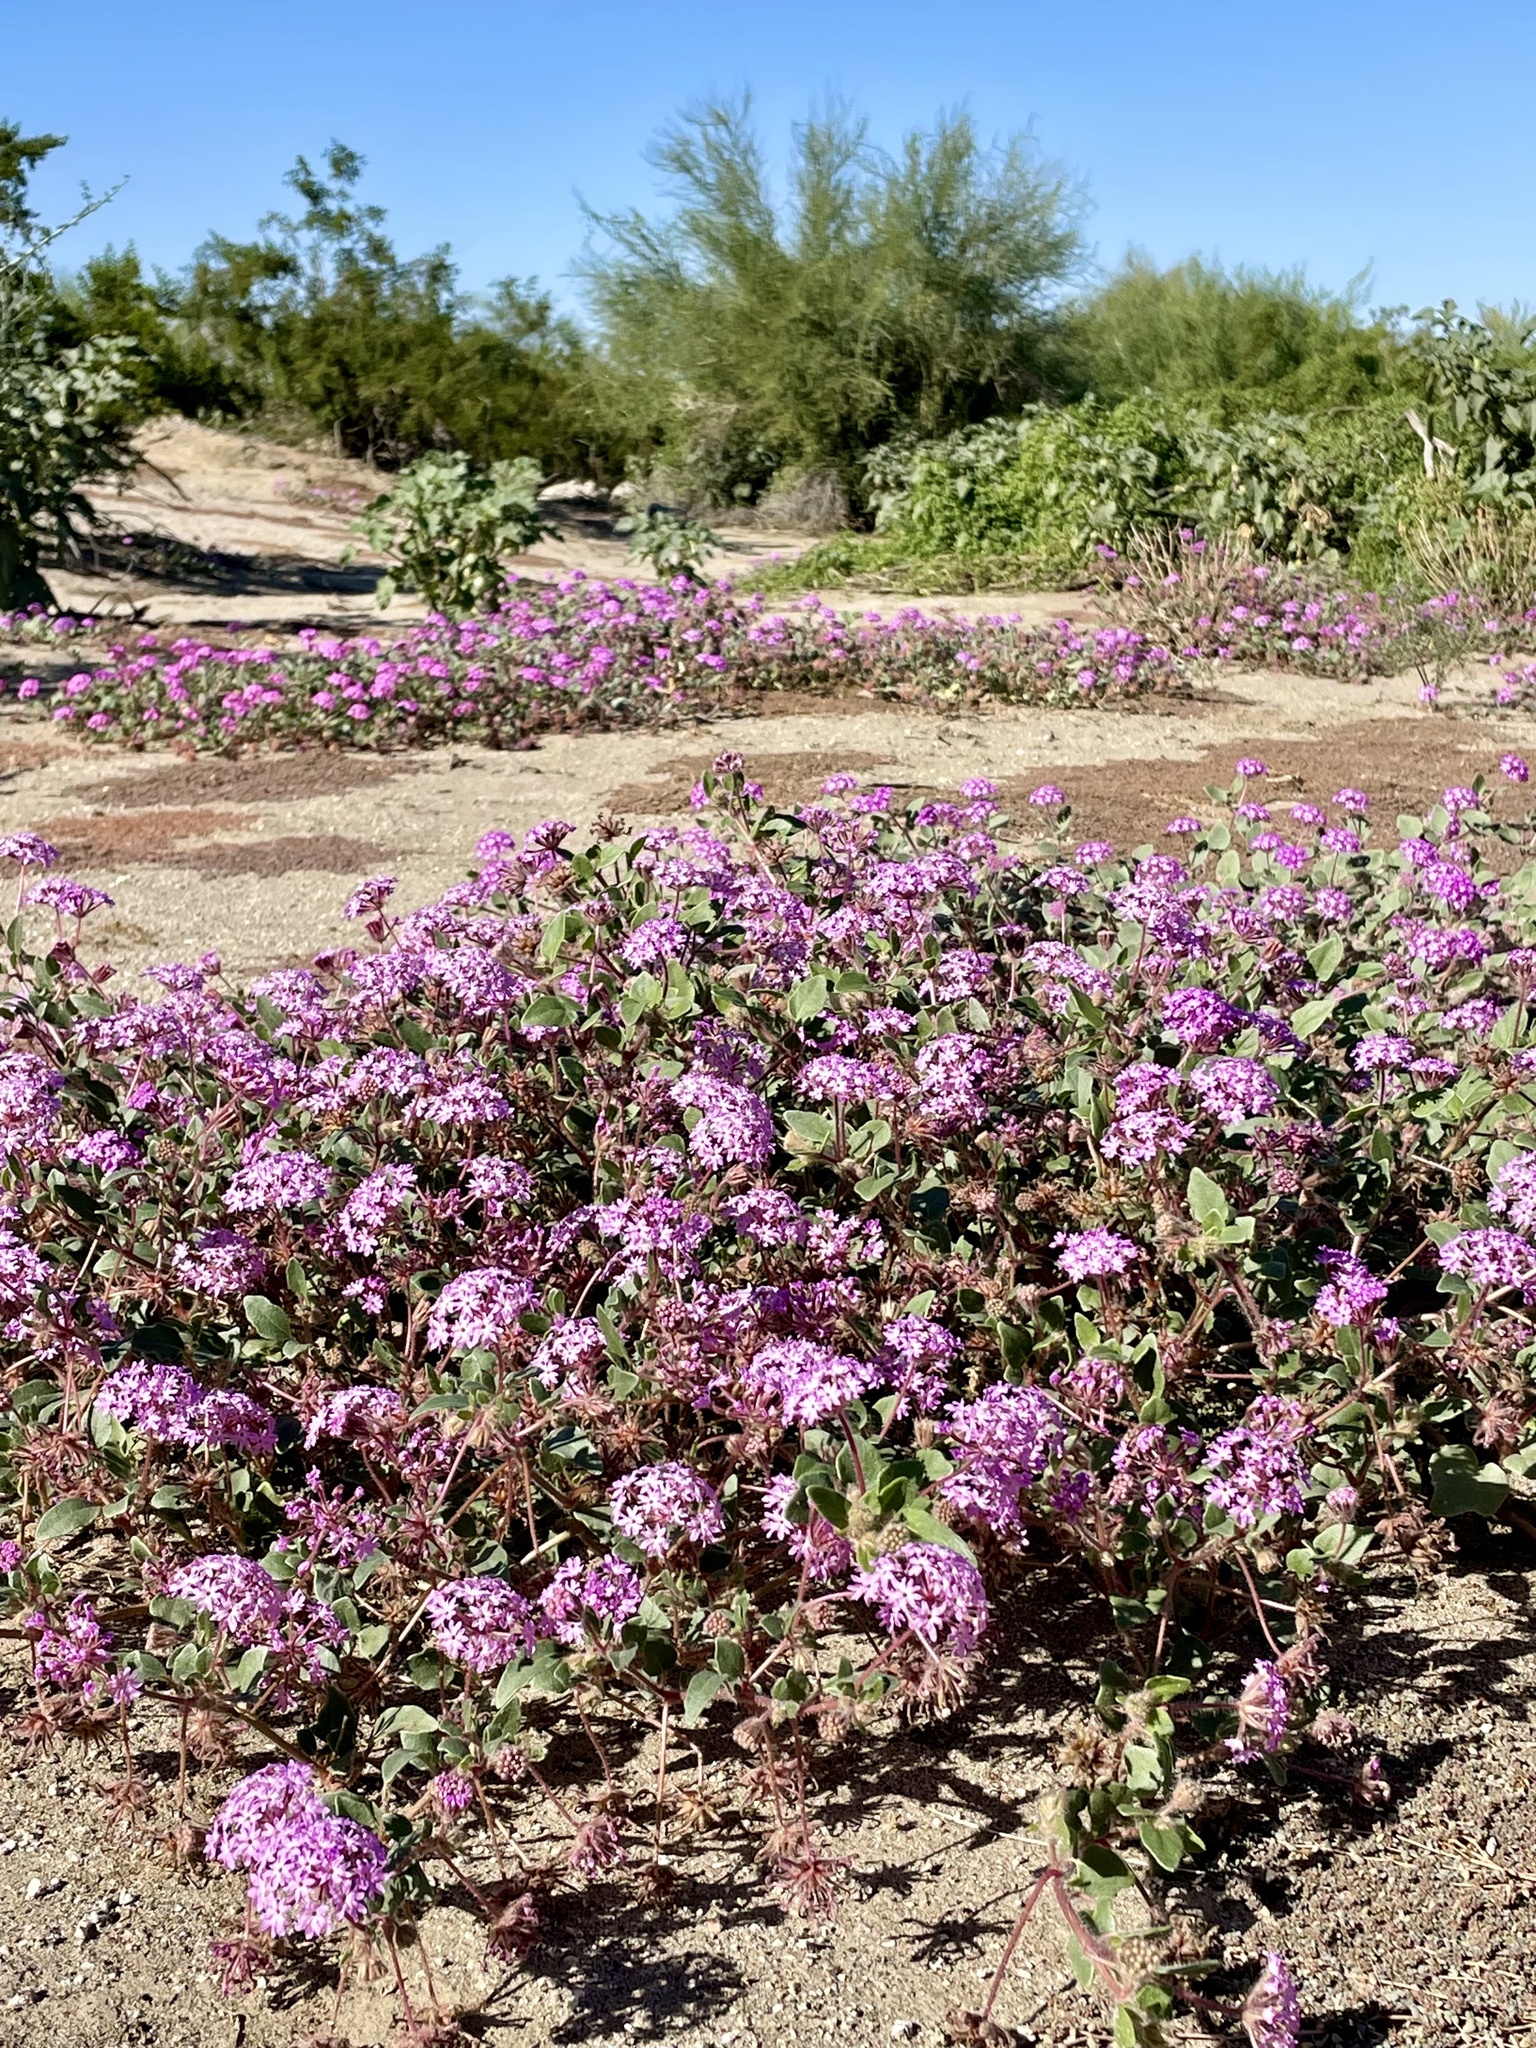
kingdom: Animalia
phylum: Arthropoda
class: Insecta
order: Hymenoptera
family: Apidae
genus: Apis
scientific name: Apis mellifera
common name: Honey bee
